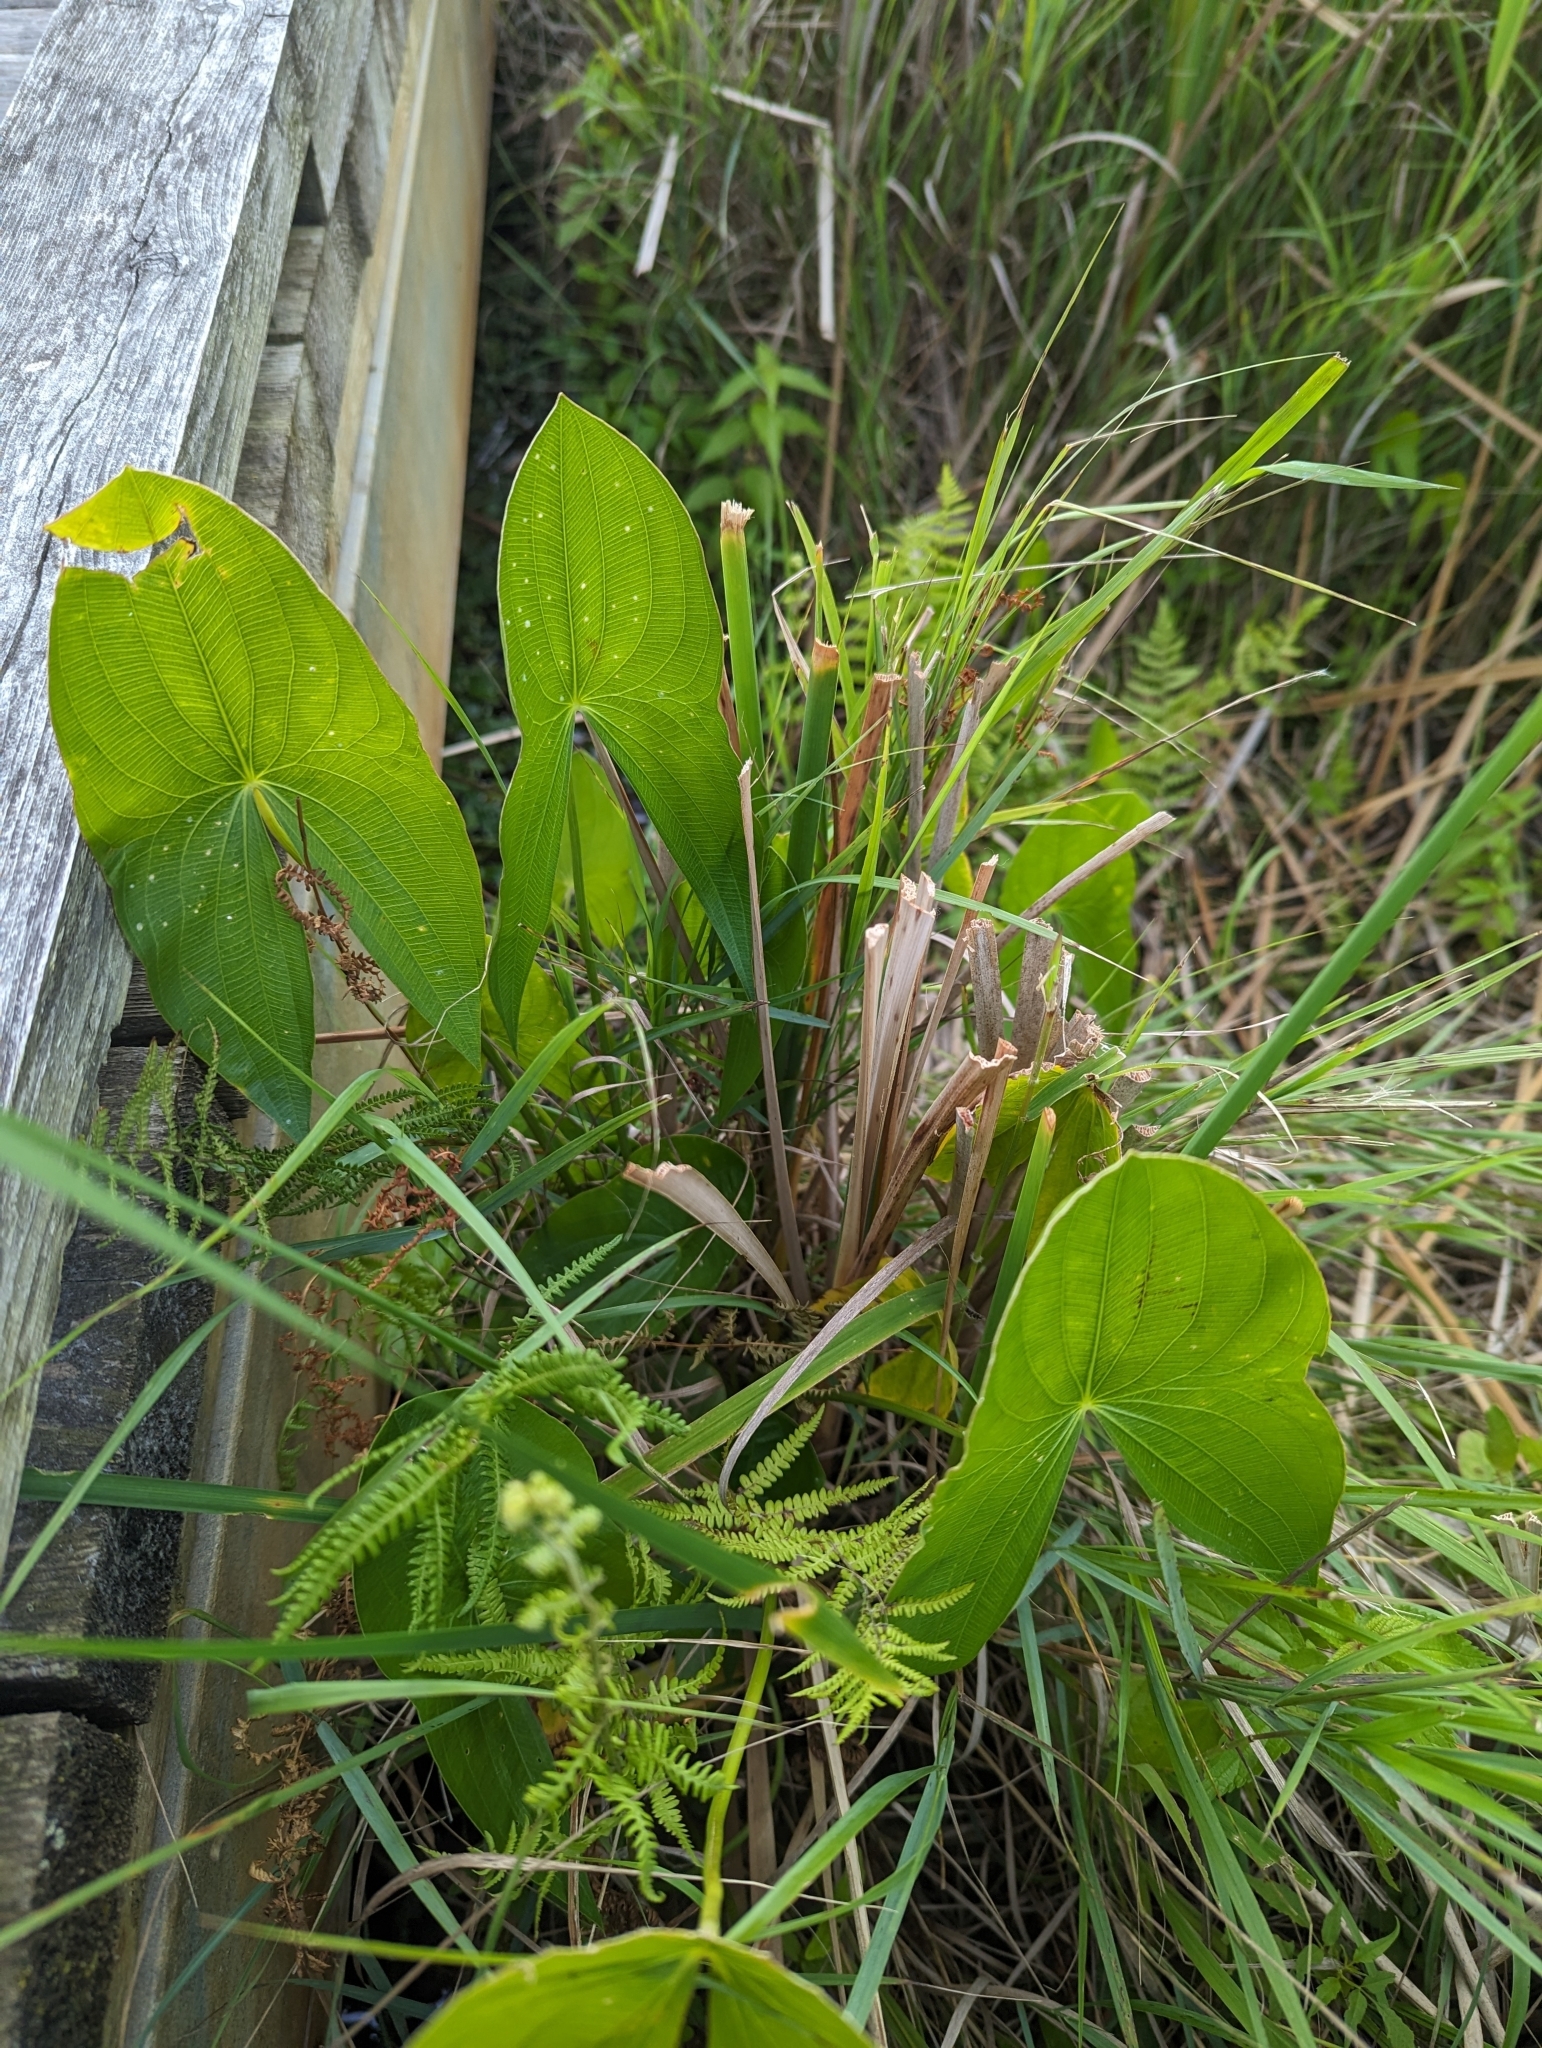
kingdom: Plantae
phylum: Tracheophyta
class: Liliopsida
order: Alismatales
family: Alismataceae
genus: Sagittaria
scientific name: Sagittaria latifolia
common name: Duck-potato
